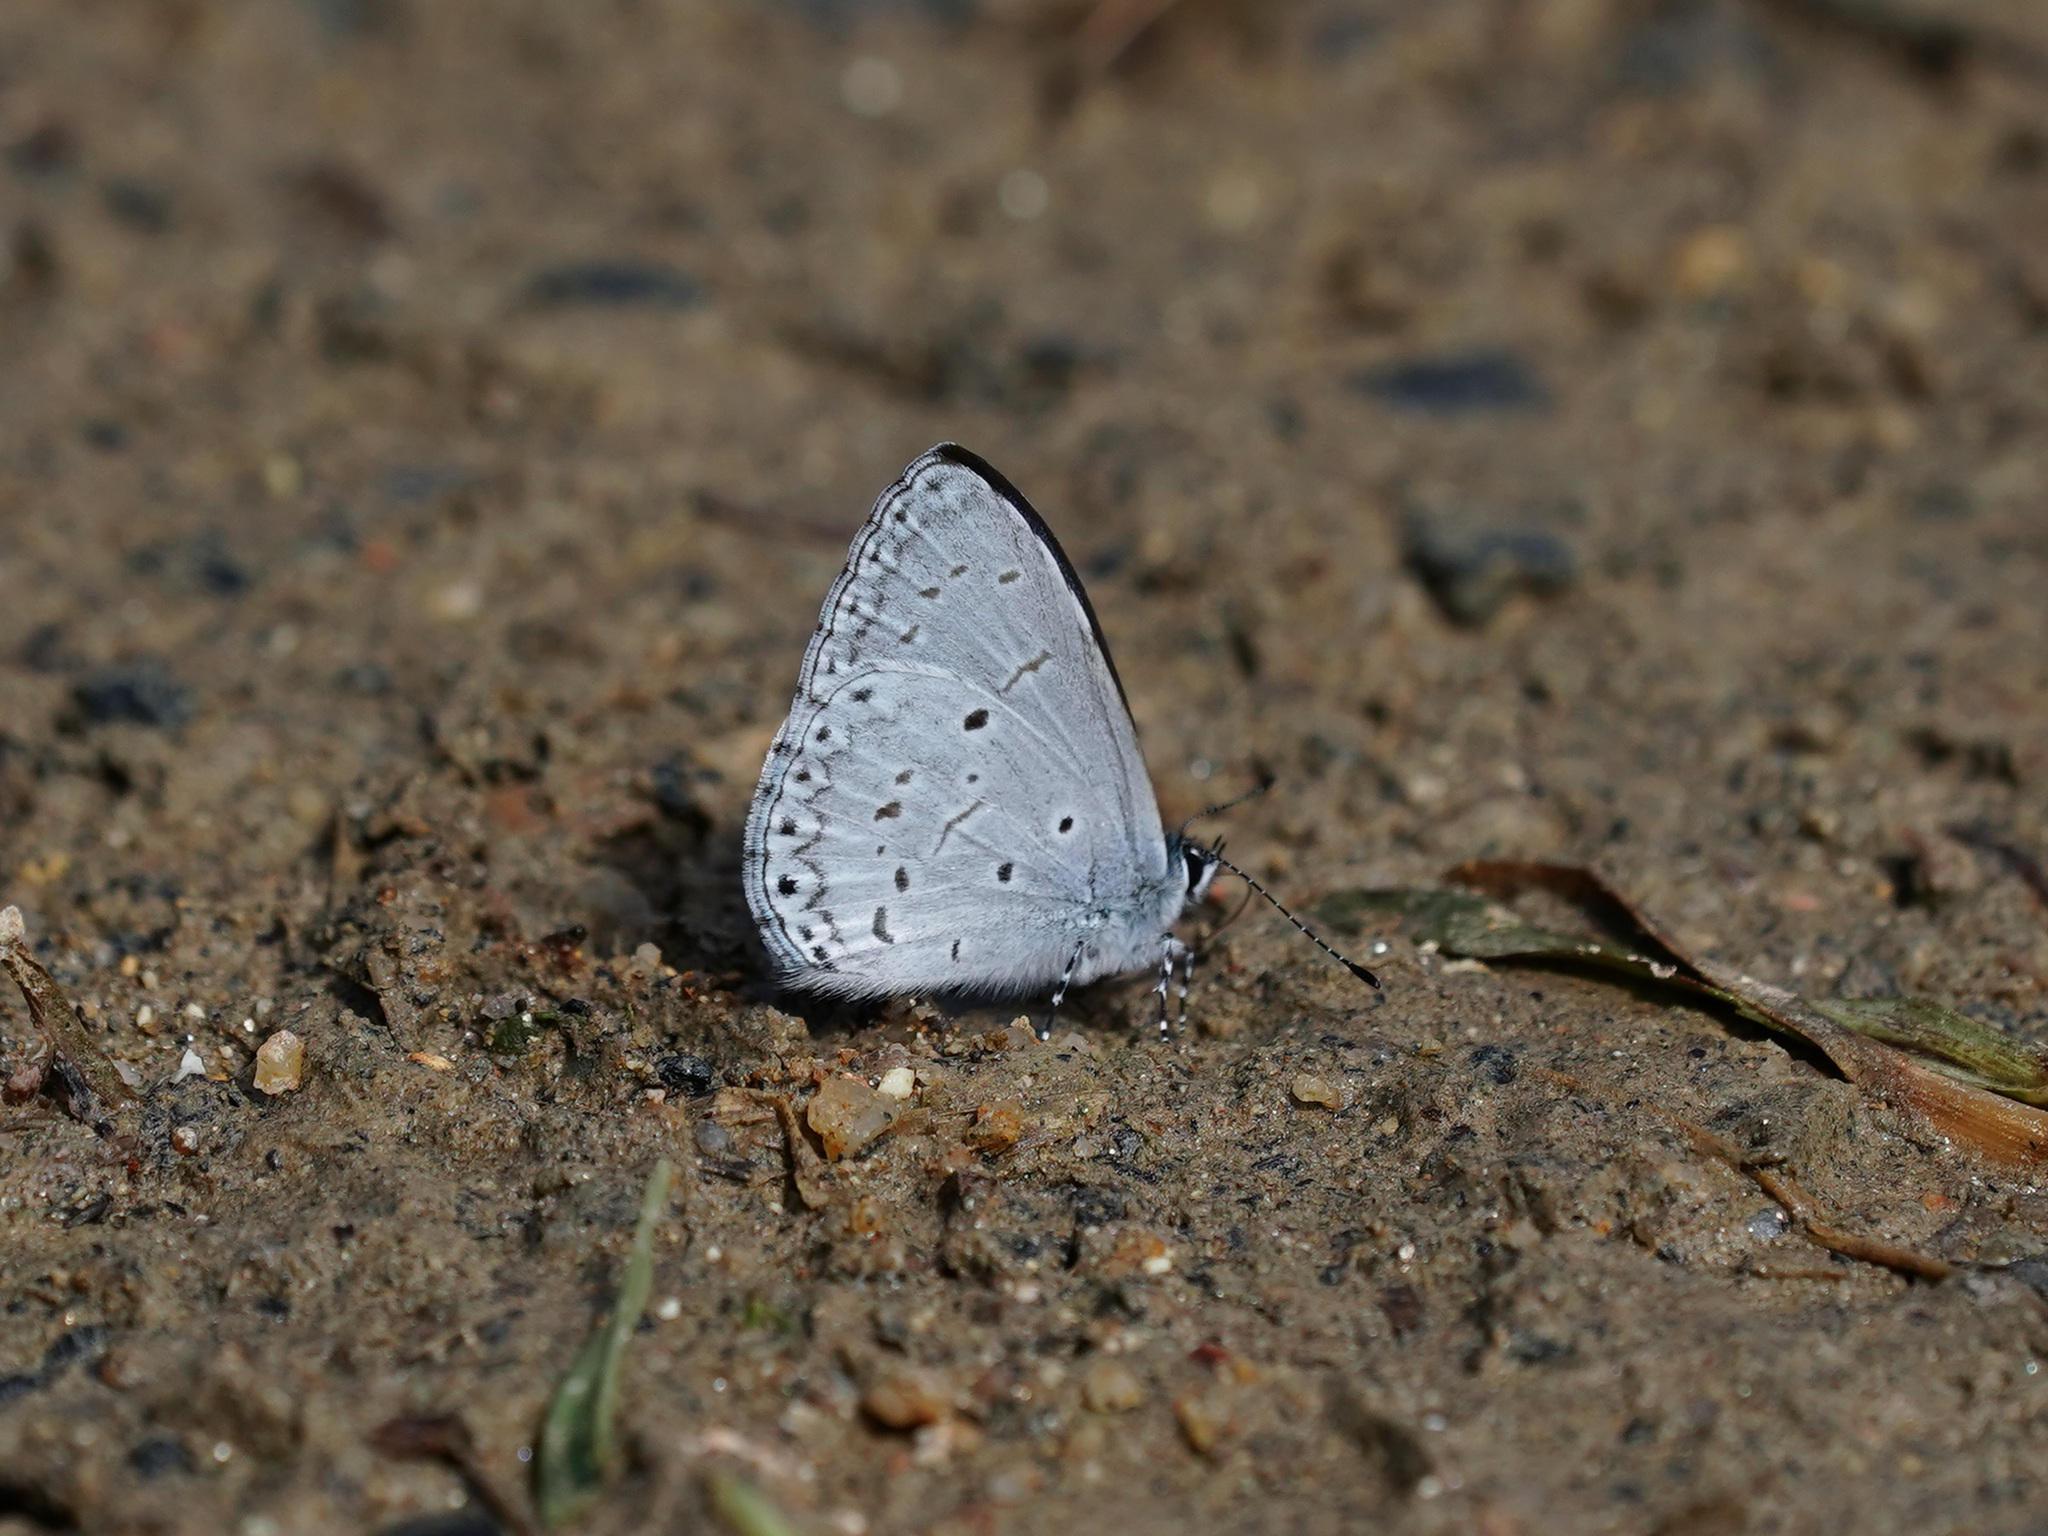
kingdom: Animalia
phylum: Arthropoda
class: Insecta
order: Lepidoptera
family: Lycaenidae
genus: Udara
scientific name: Udara
